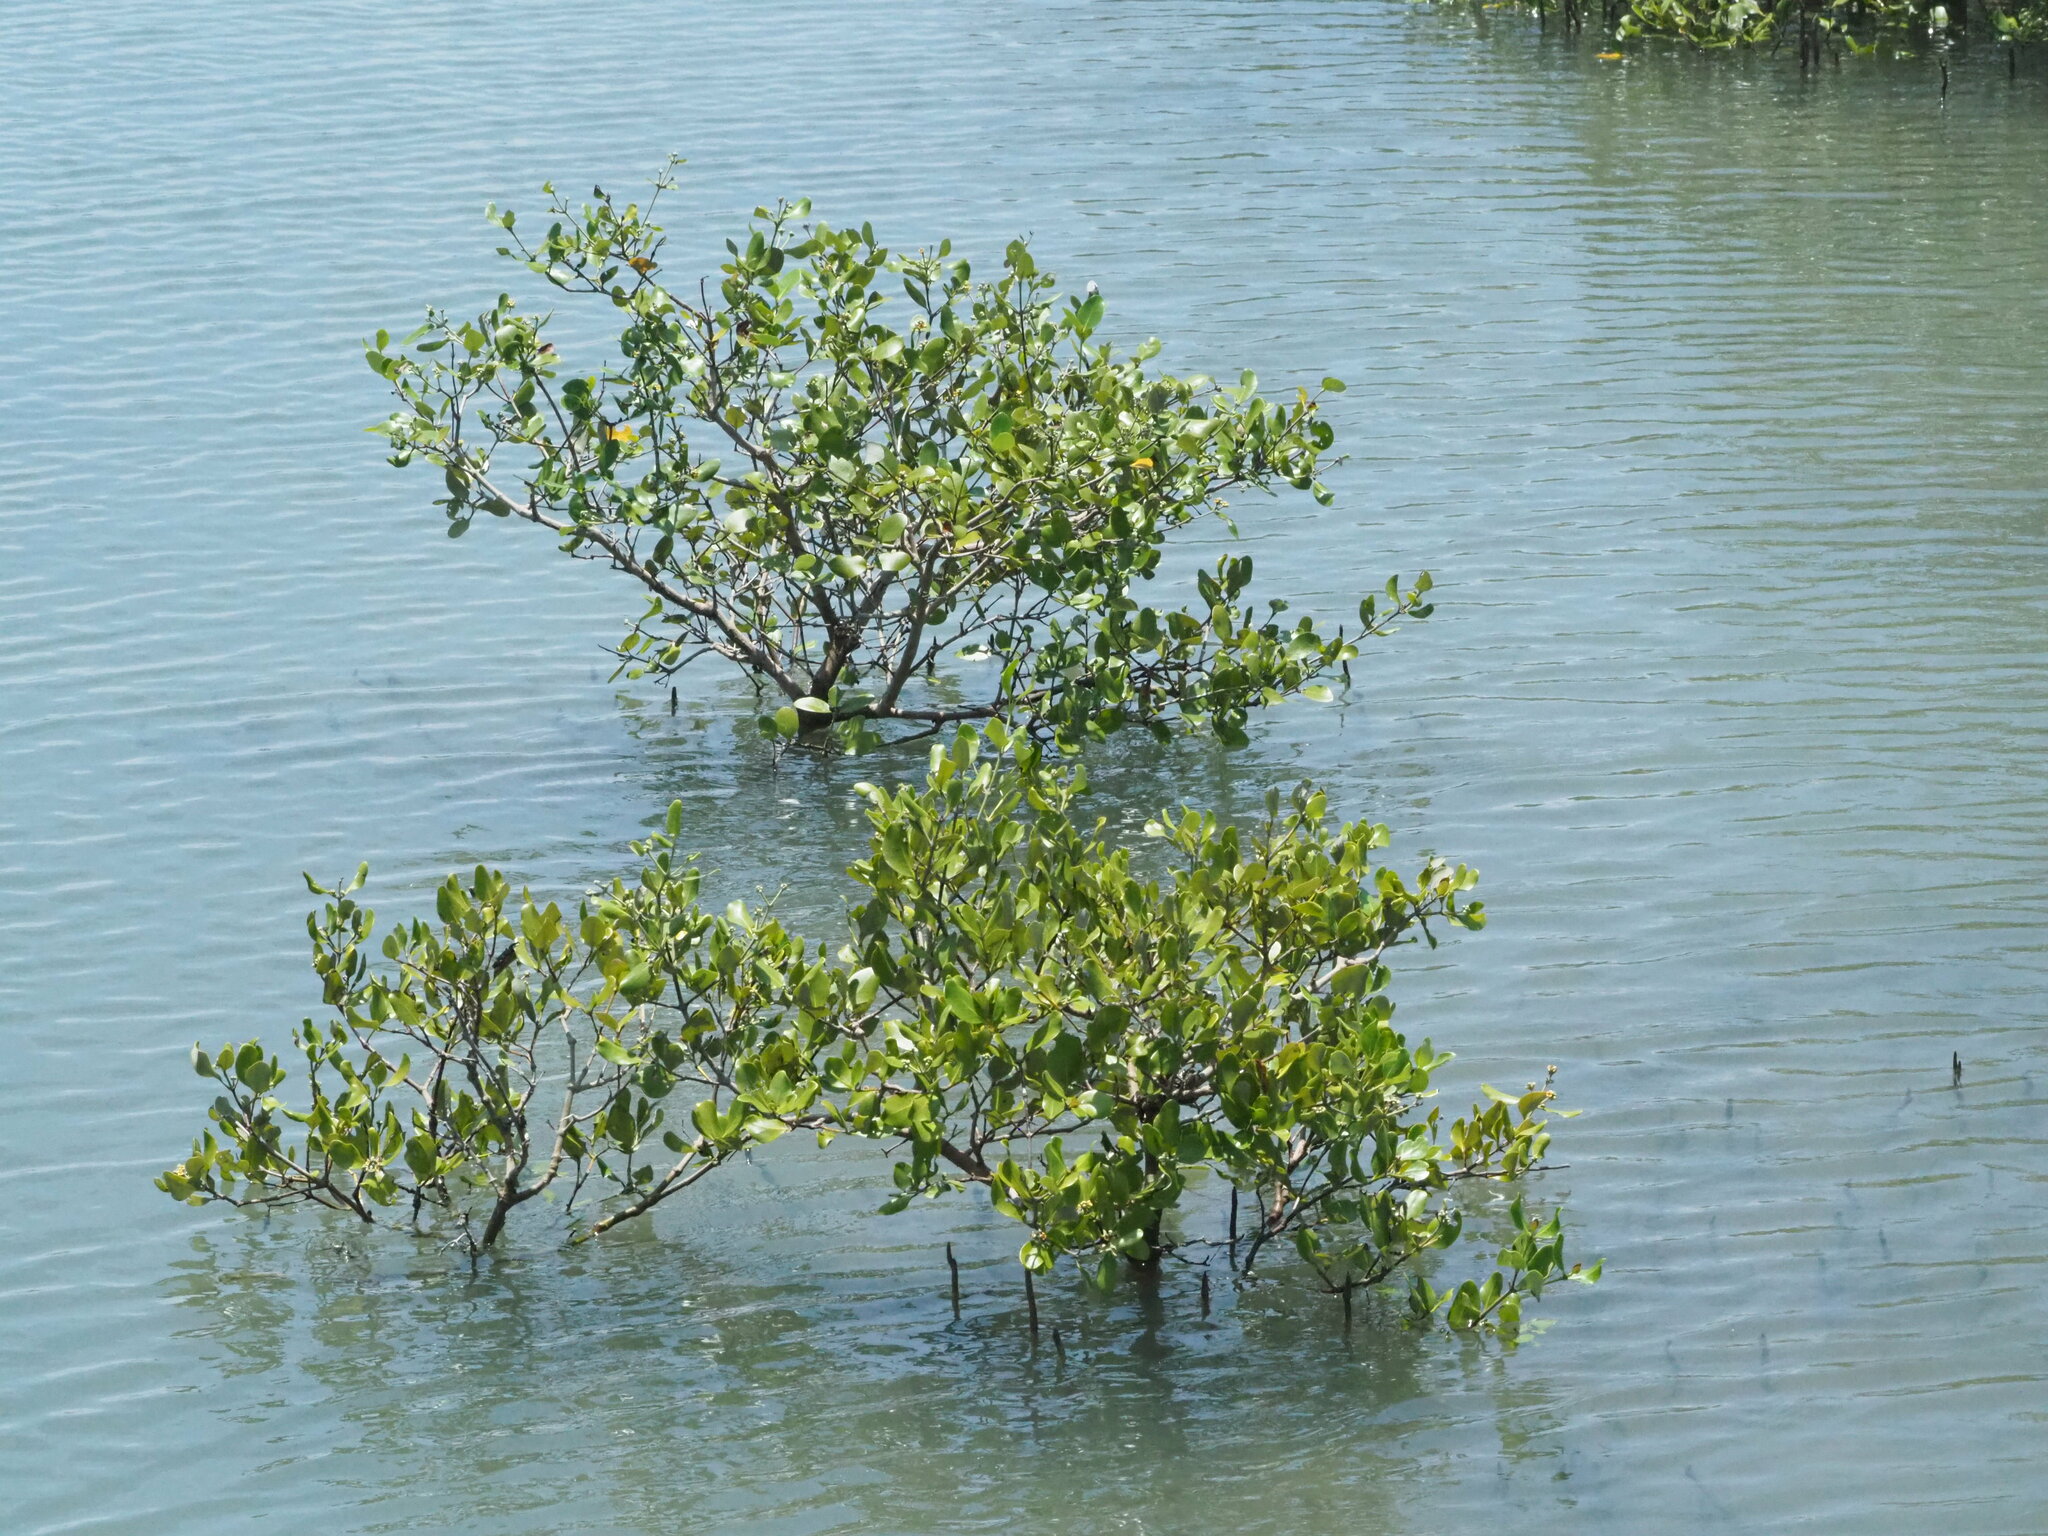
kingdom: Plantae
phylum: Tracheophyta
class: Magnoliopsida
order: Lamiales
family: Acanthaceae
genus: Avicennia
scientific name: Avicennia marina
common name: Gray mangrove
